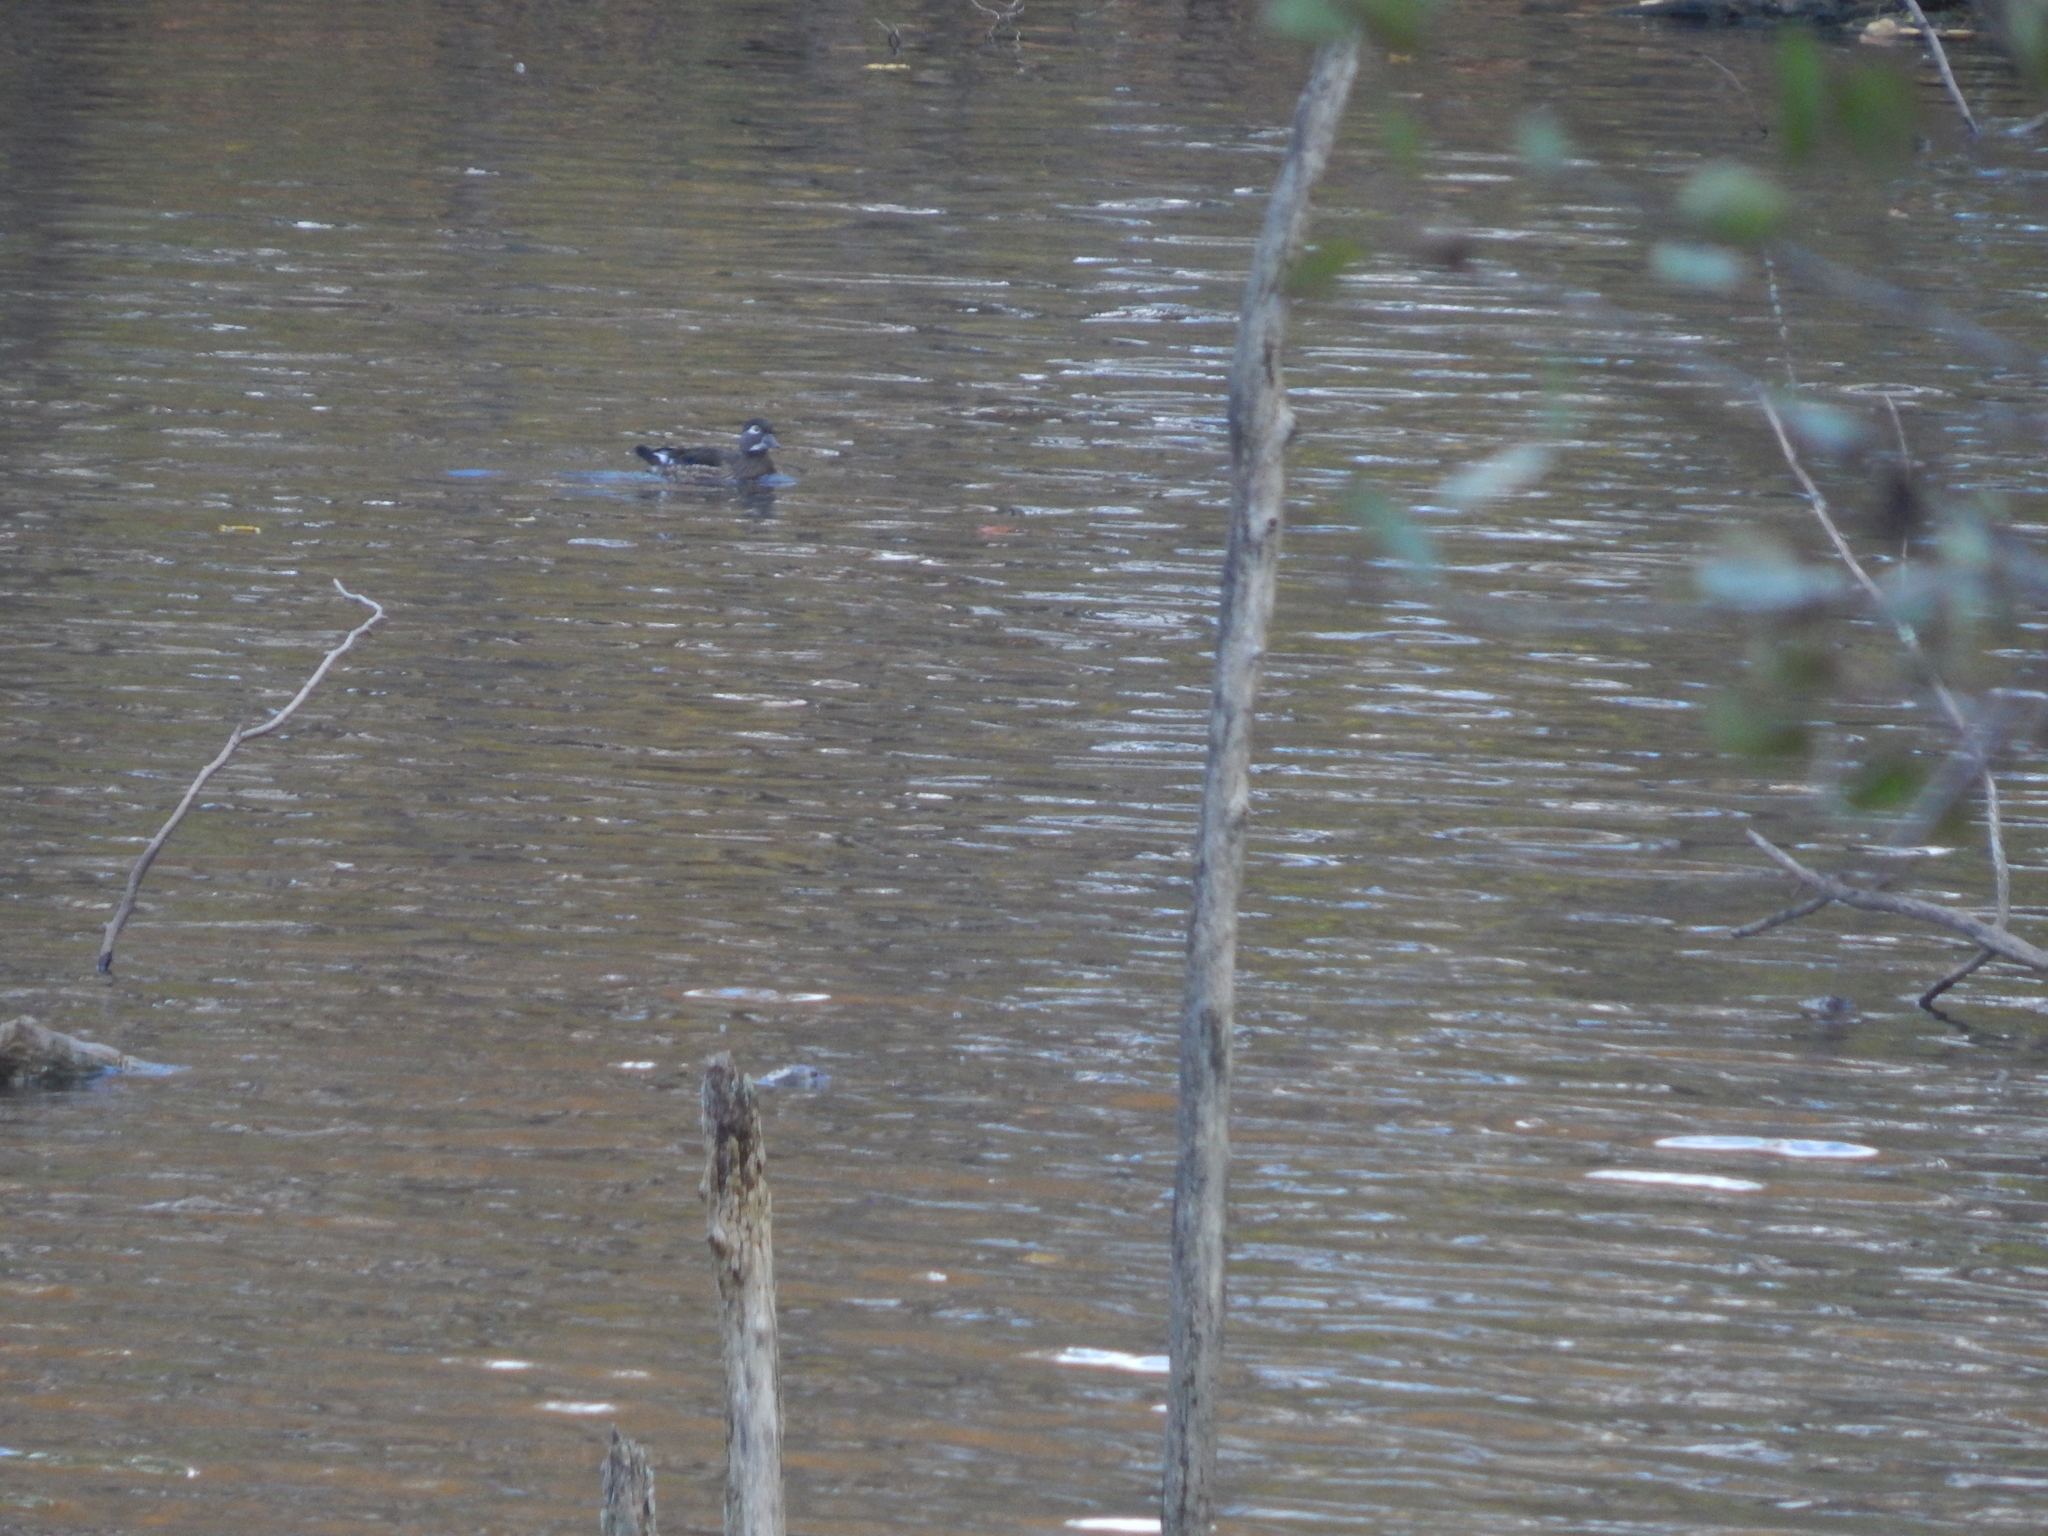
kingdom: Animalia
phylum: Chordata
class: Aves
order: Anseriformes
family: Anatidae
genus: Aix
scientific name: Aix sponsa
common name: Wood duck
